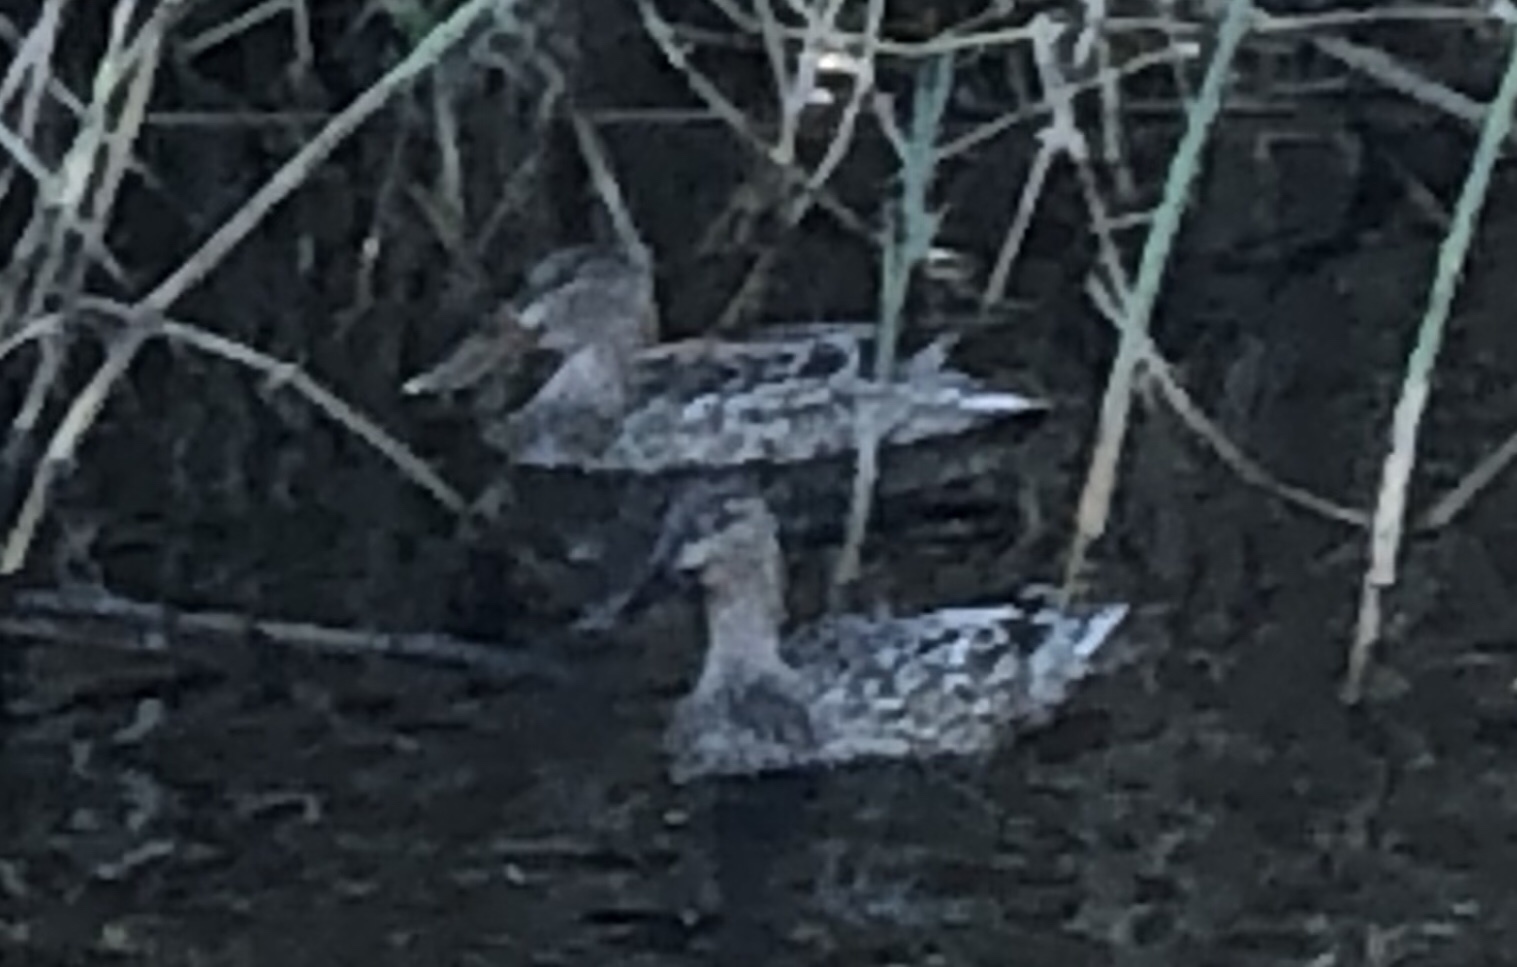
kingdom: Animalia
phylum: Chordata
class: Aves
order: Anseriformes
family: Anatidae
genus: Spatula
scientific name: Spatula clypeata
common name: Northern shoveler
